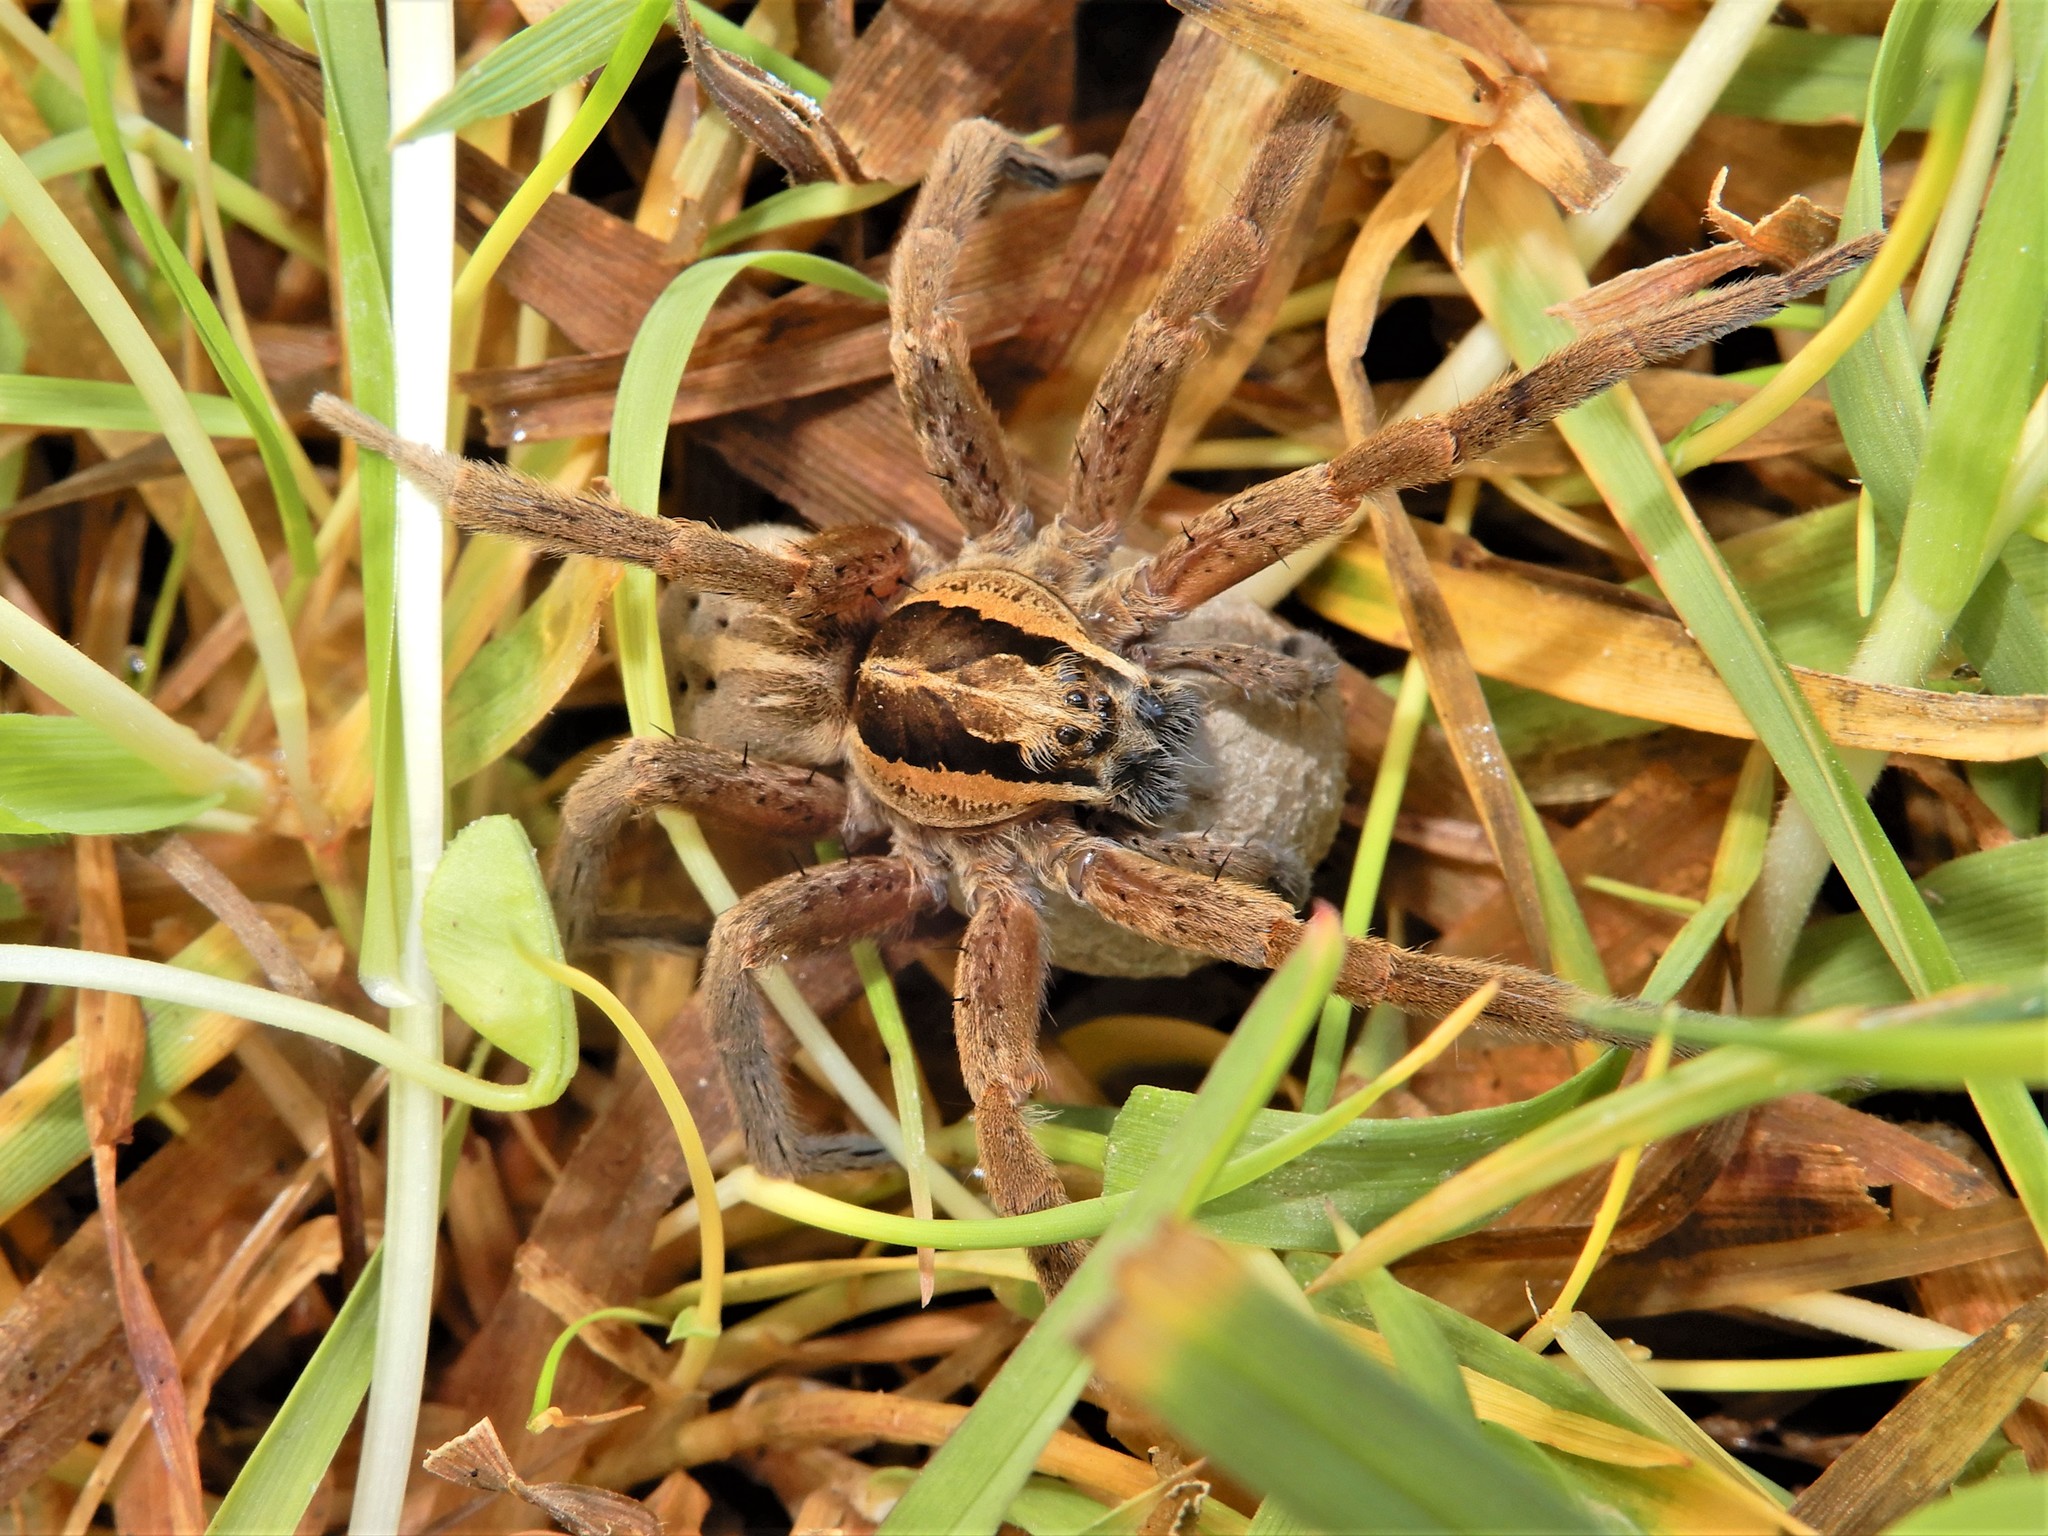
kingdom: Animalia
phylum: Arthropoda
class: Arachnida
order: Araneae
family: Pisauridae
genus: Dolomedes
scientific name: Dolomedes minor
